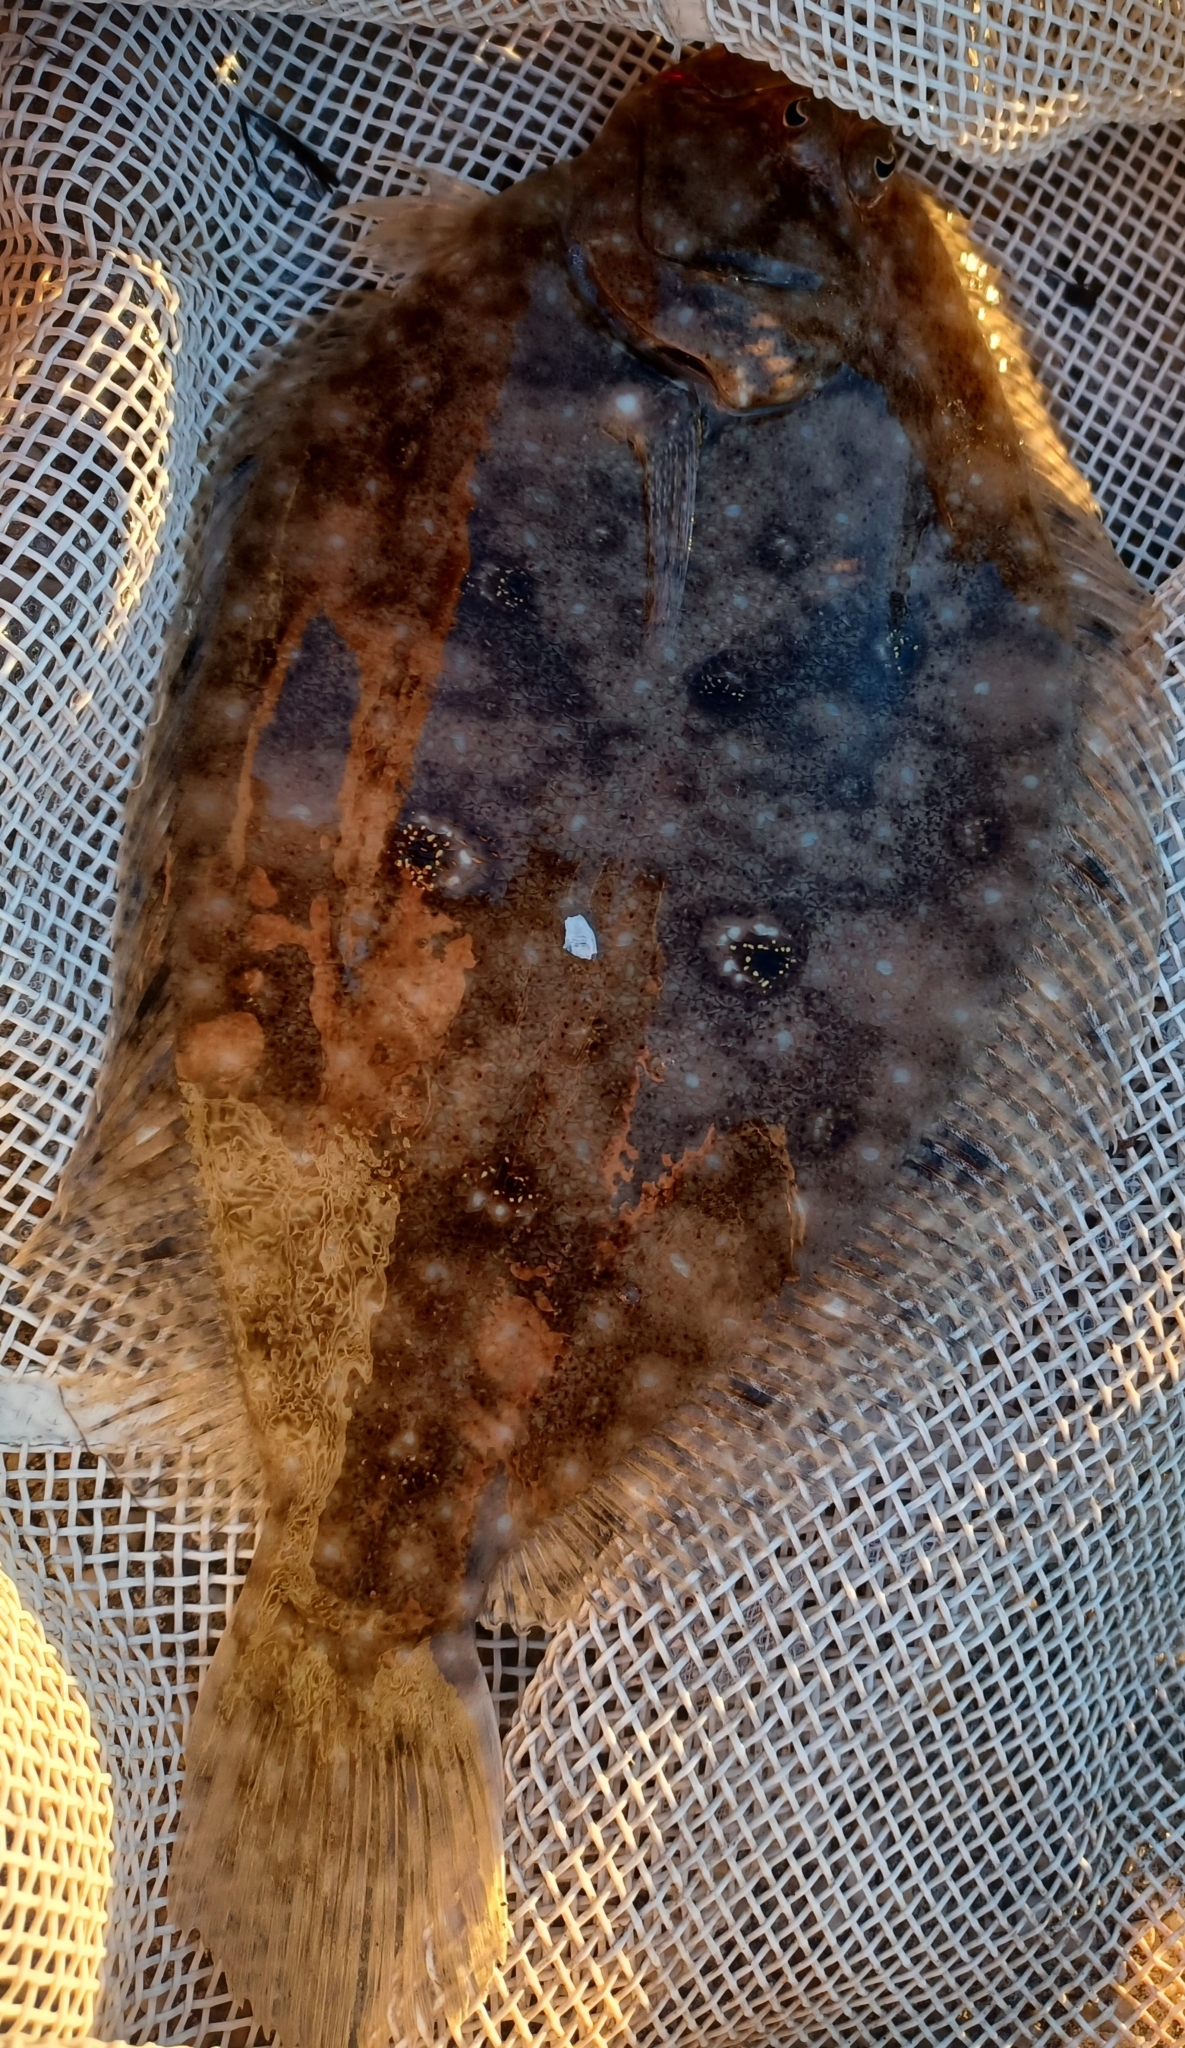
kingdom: Animalia
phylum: Chordata
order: Pleuronectiformes
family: Paralichthyidae
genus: Pseudorhombus
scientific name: Pseudorhombus jenynsii
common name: Smalltooth flounder
